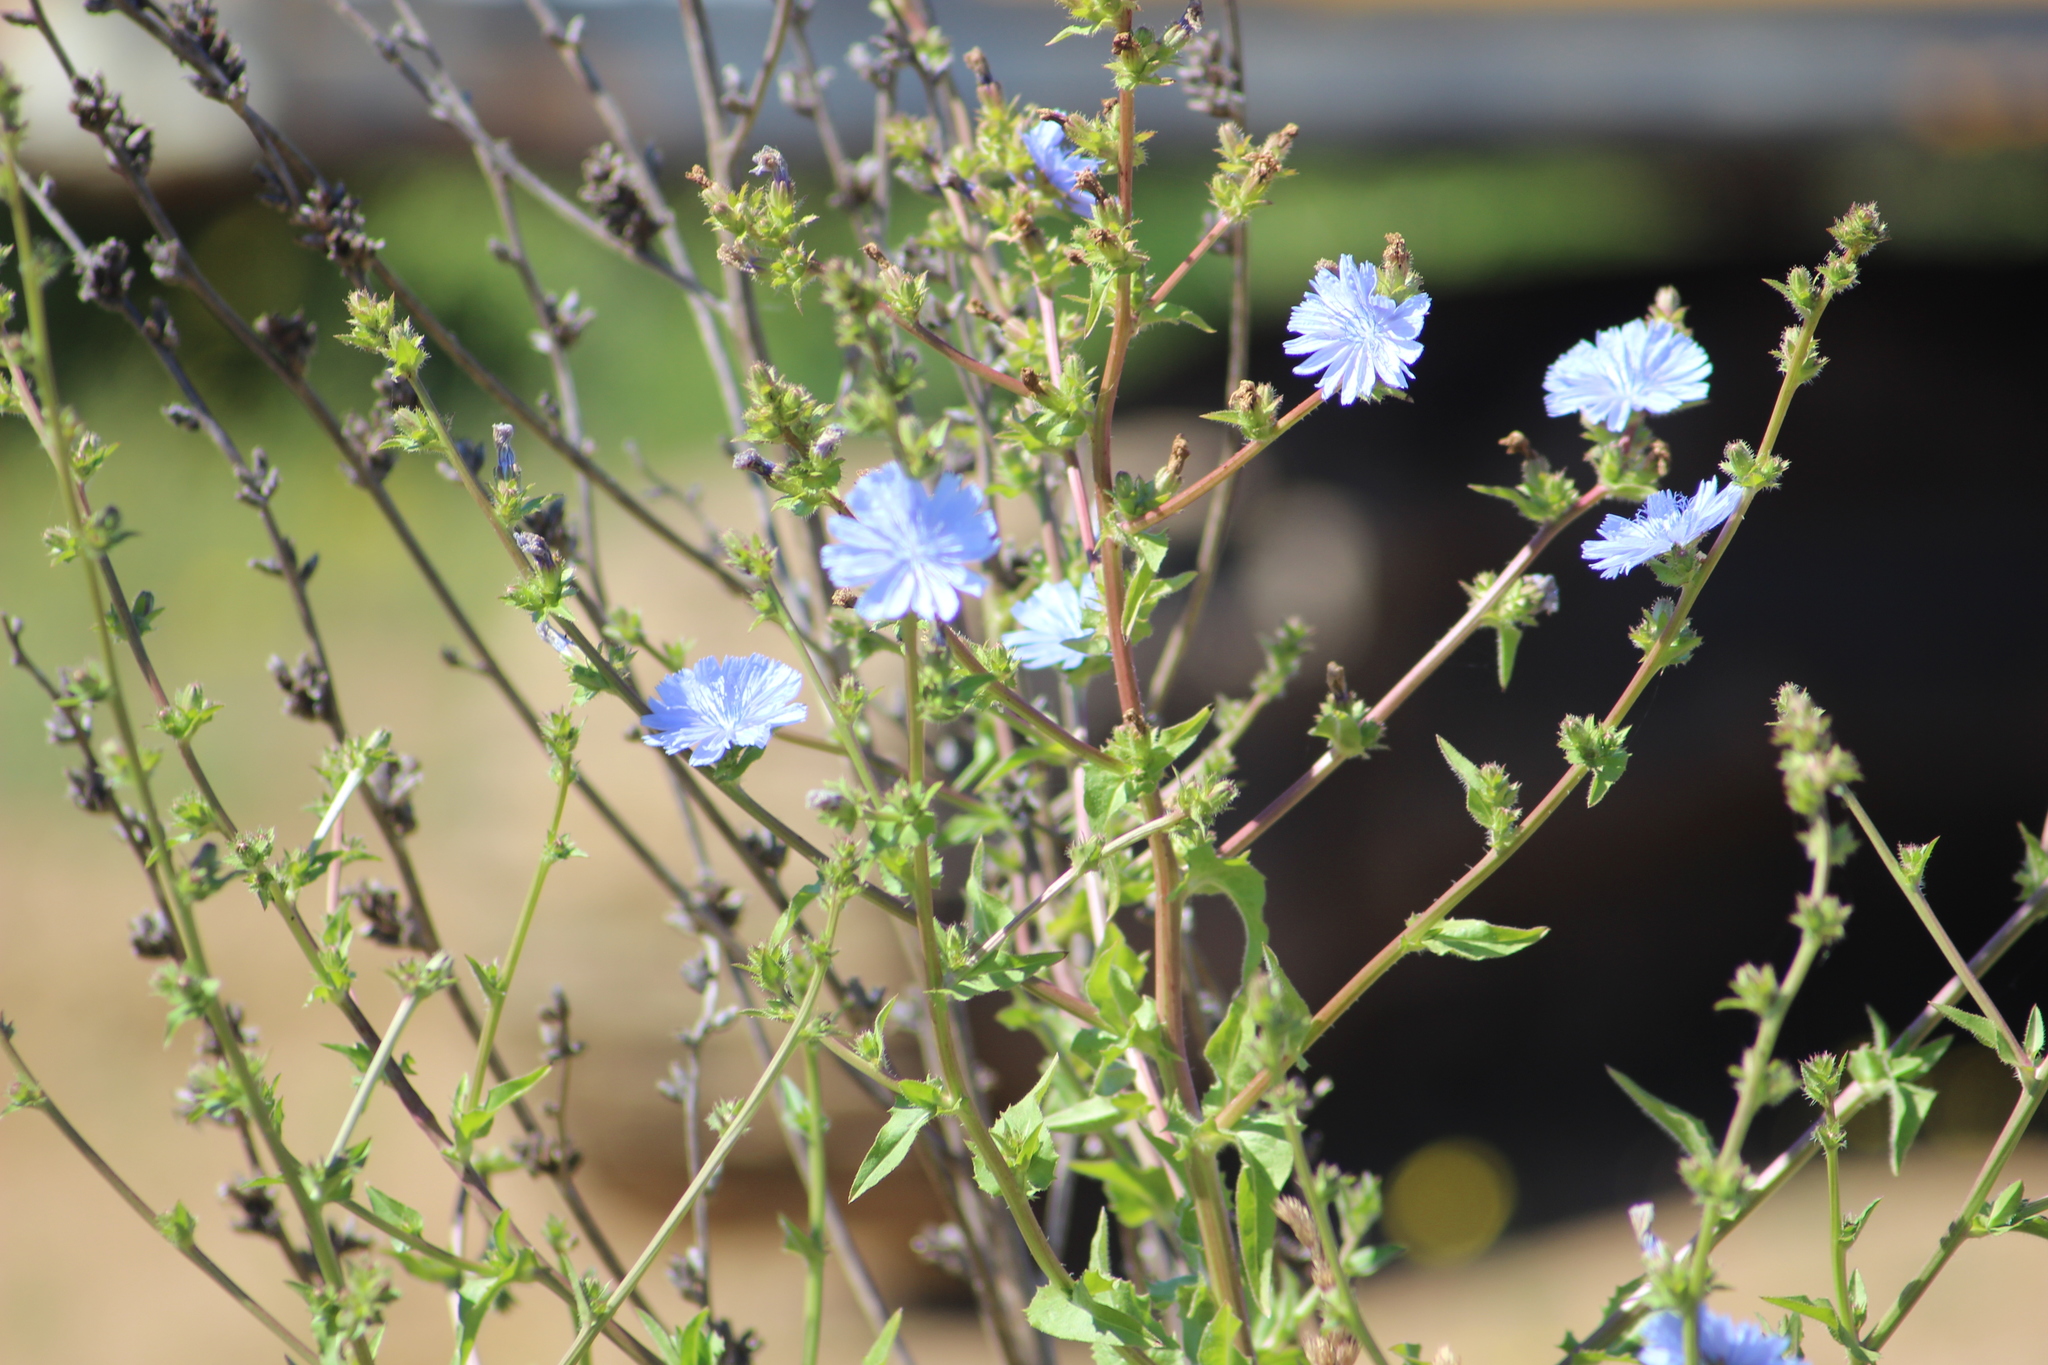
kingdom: Plantae
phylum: Tracheophyta
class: Magnoliopsida
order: Asterales
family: Asteraceae
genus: Cichorium
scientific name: Cichorium intybus
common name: Chicory
